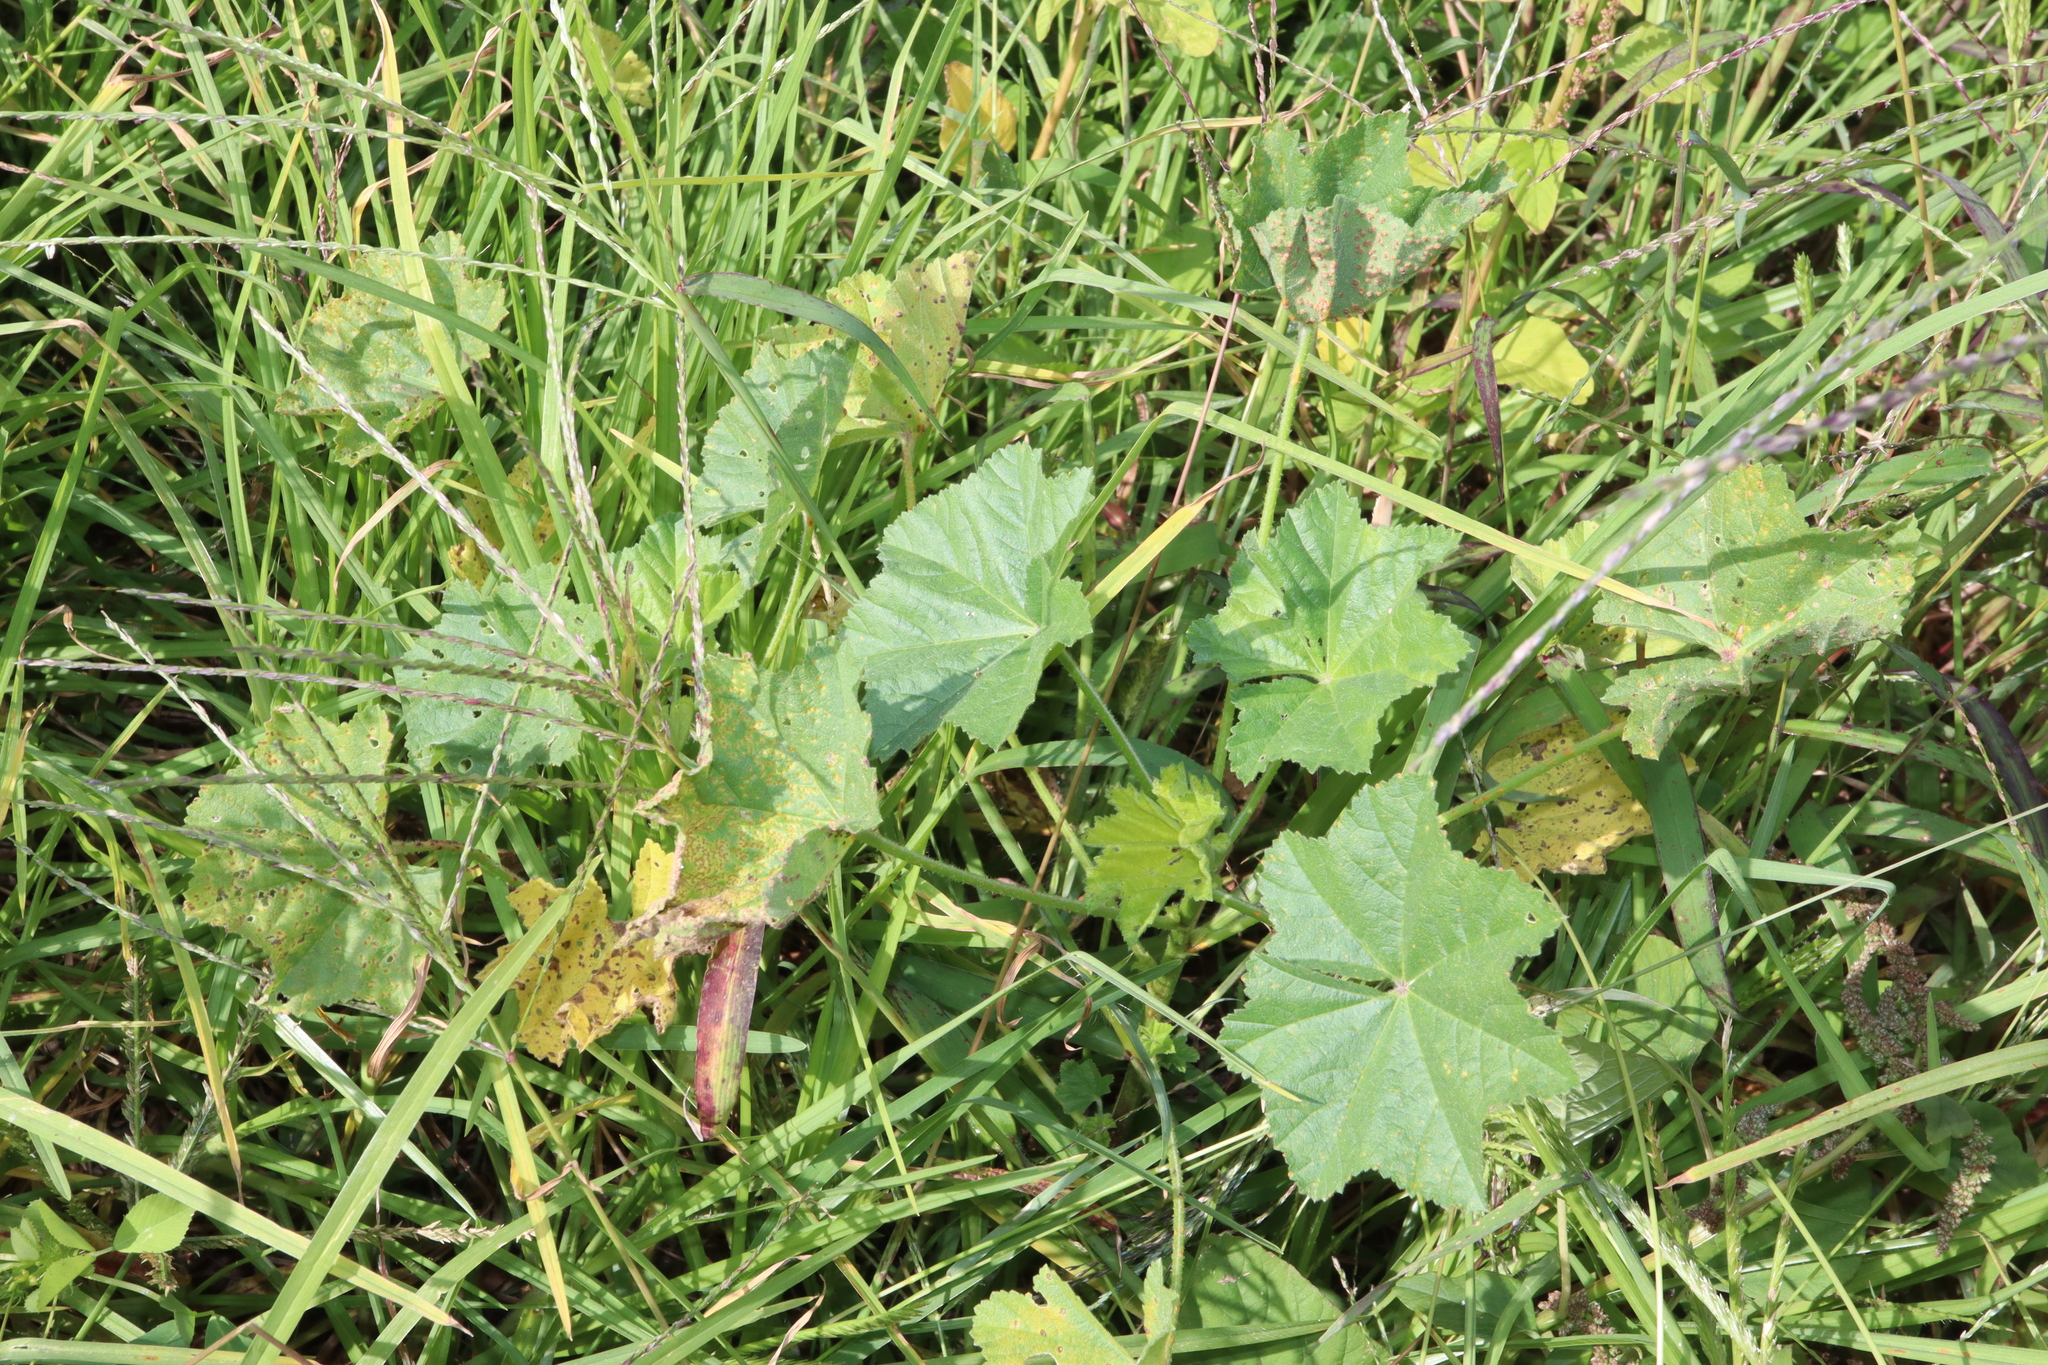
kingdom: Plantae
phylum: Tracheophyta
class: Magnoliopsida
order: Malvales
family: Malvaceae
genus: Malva
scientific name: Malva parviflora
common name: Least mallow
